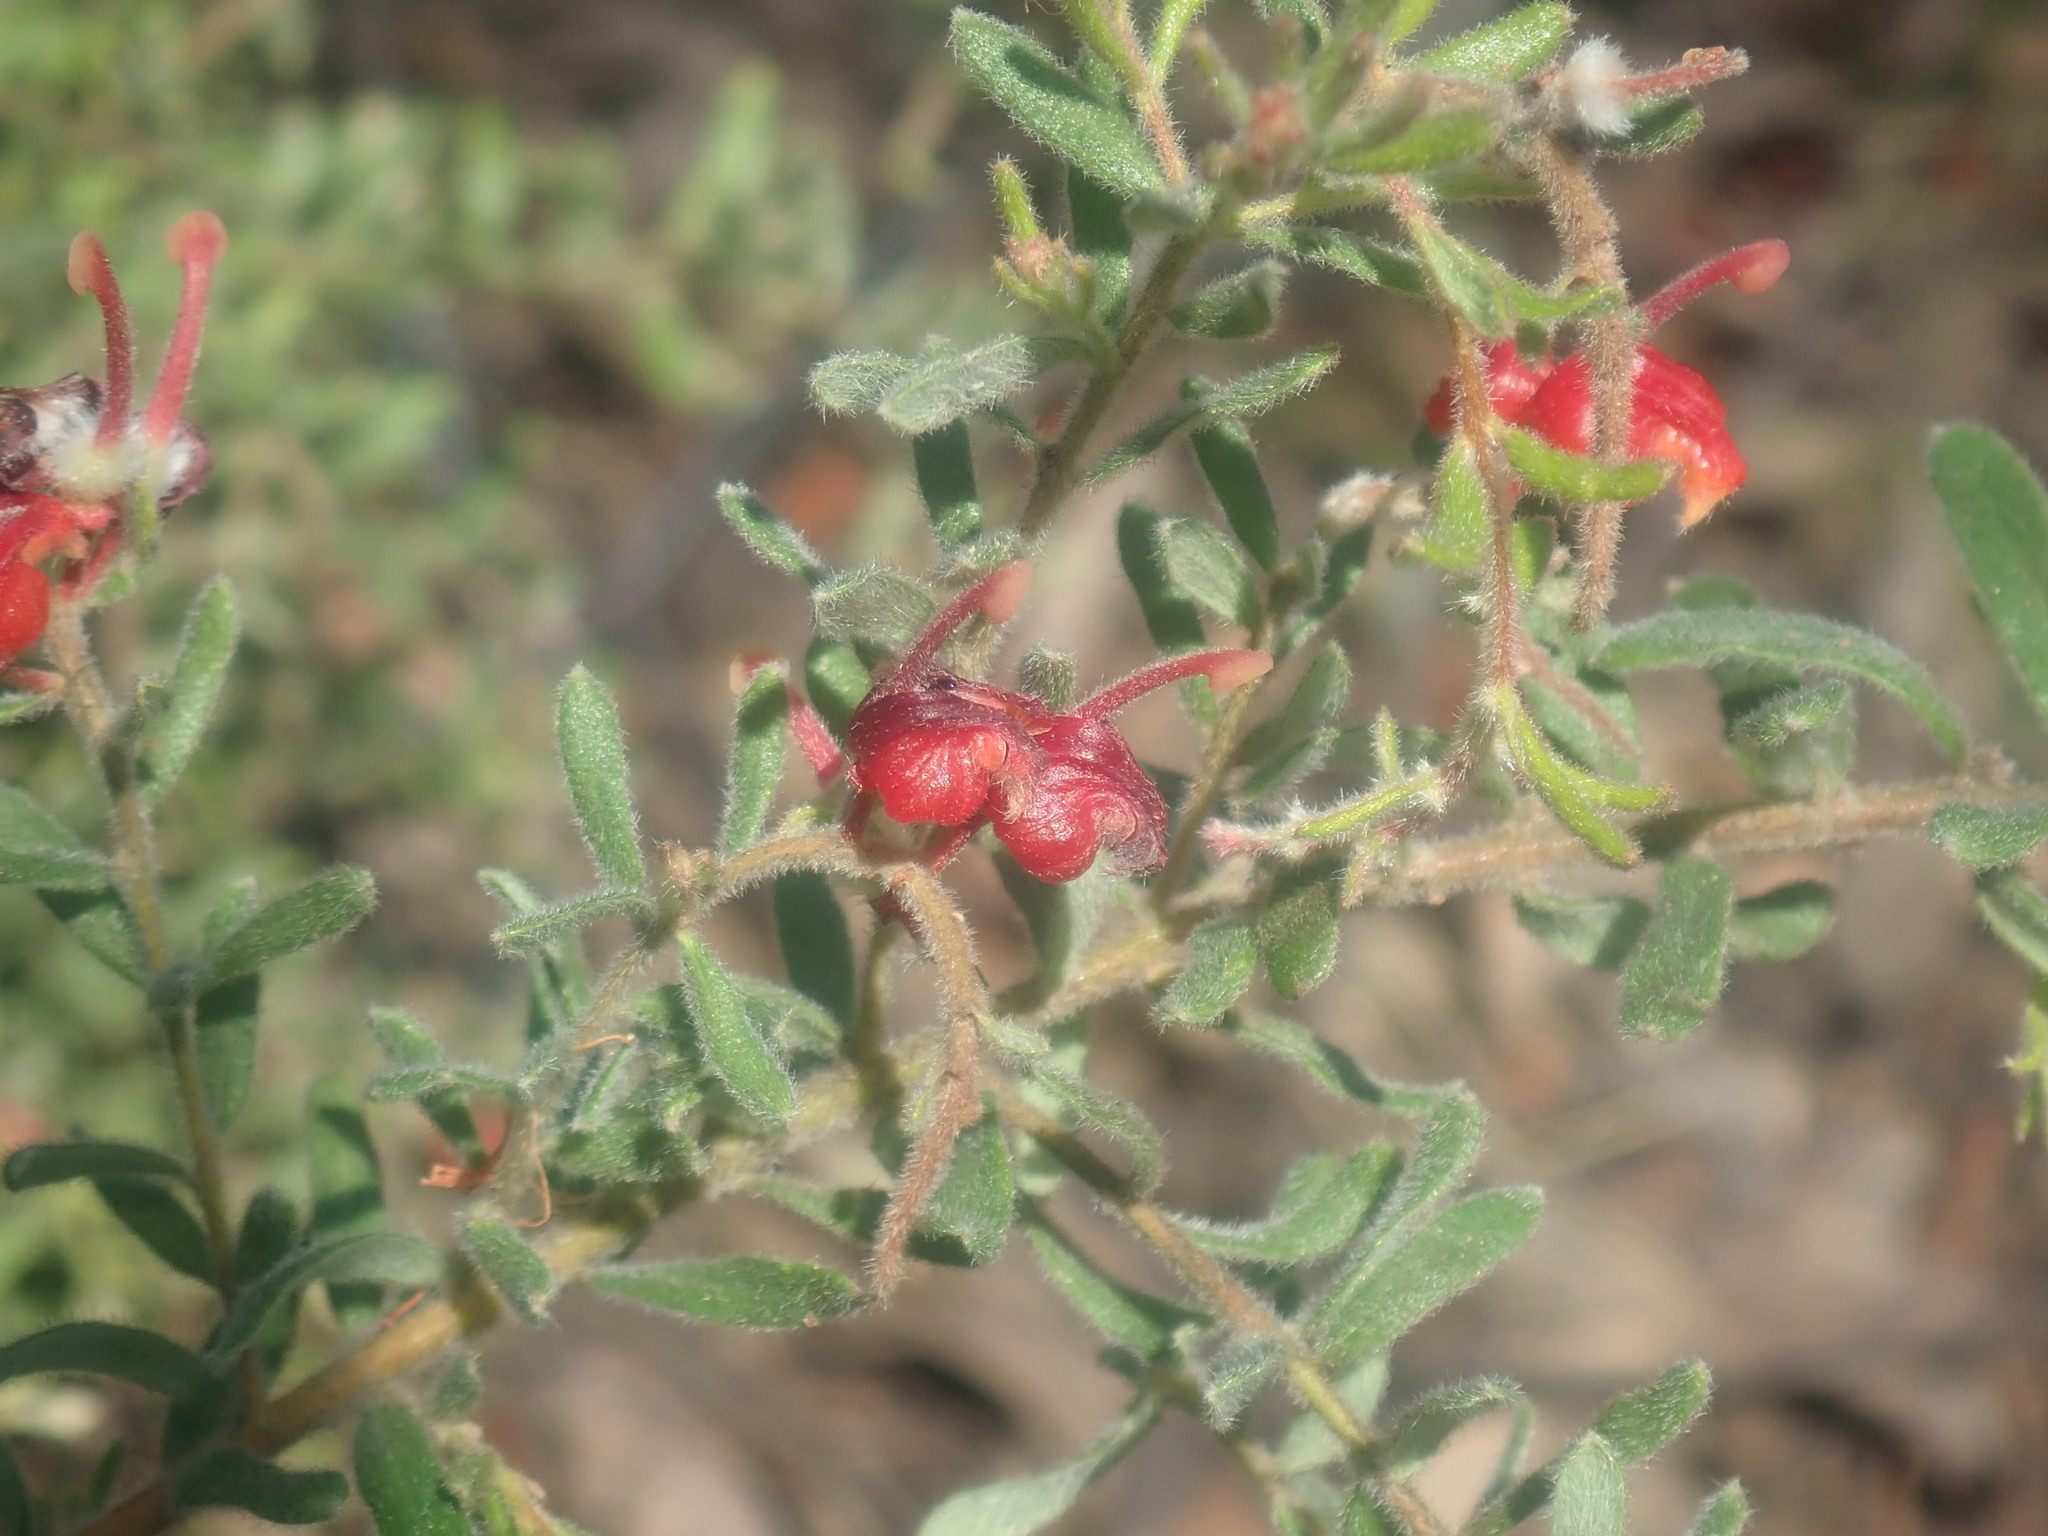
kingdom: Plantae
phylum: Tracheophyta
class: Magnoliopsida
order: Proteales
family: Proteaceae
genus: Grevillea
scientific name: Grevillea alpina
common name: Catclaws grevillea
